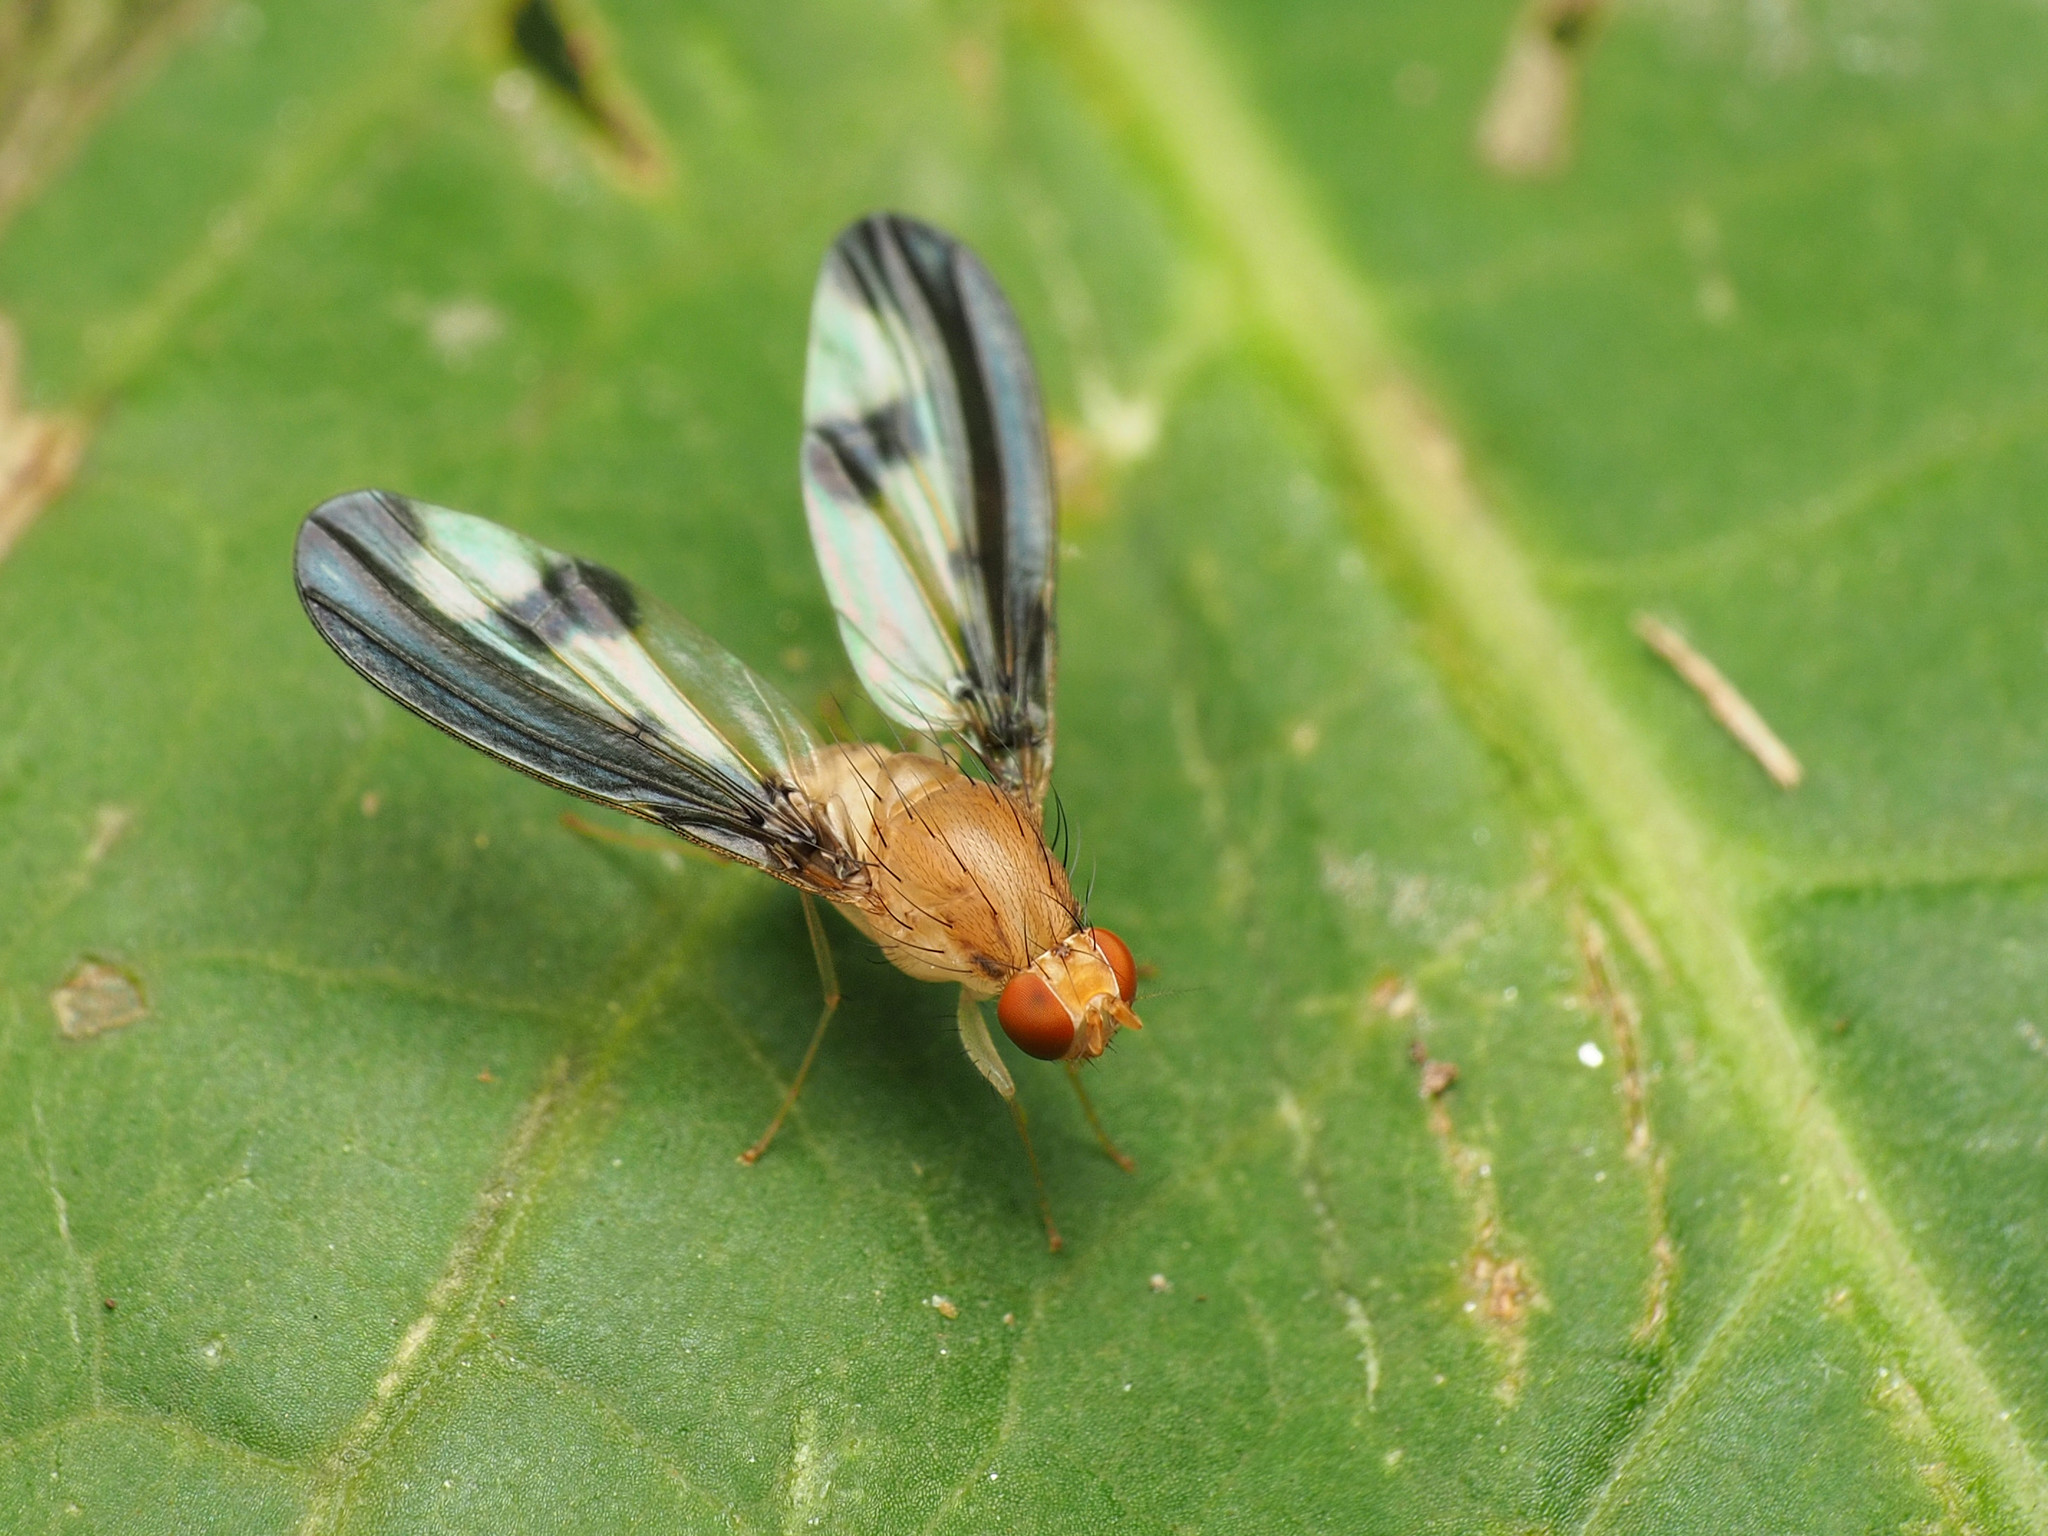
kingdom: Animalia
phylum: Arthropoda
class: Insecta
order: Diptera
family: Pallopteridae
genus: Toxonevra
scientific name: Toxonevra superba
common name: Antlered flutter fly
